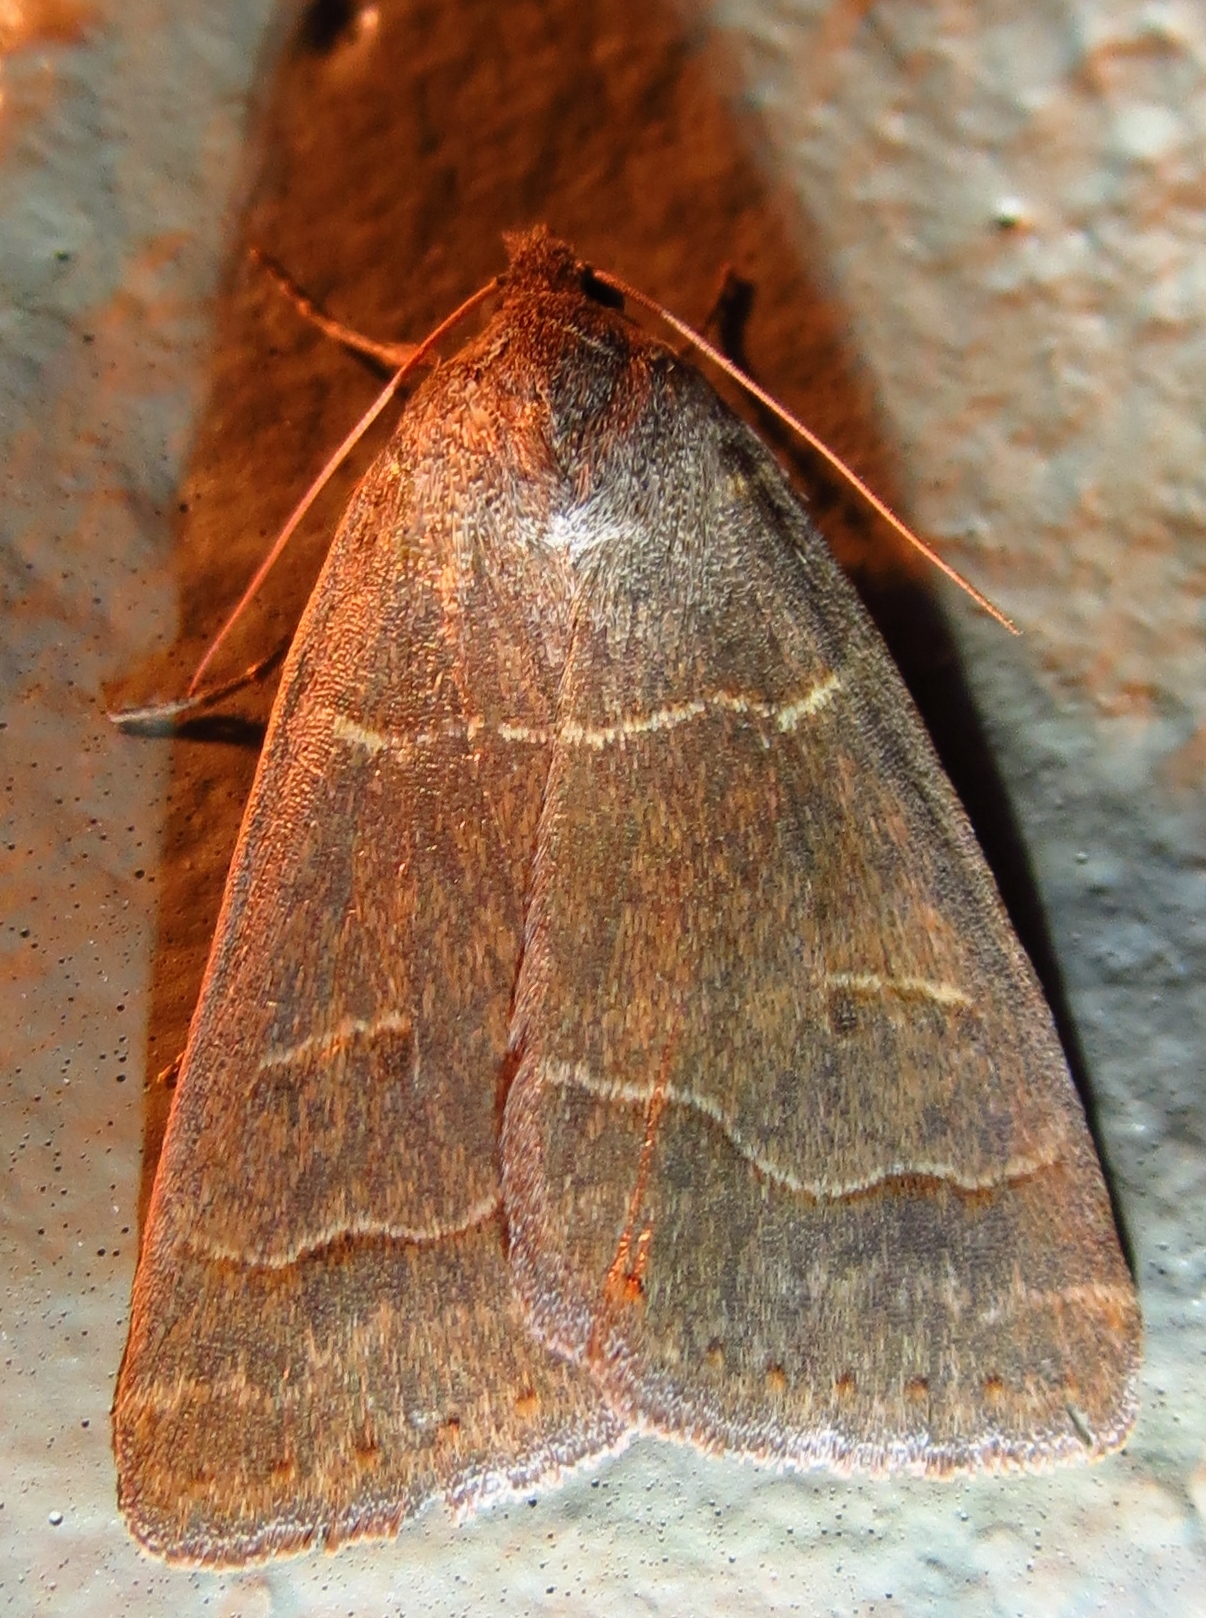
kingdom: Animalia
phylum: Arthropoda
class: Insecta
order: Lepidoptera
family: Erebidae
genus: Phoberia
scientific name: Phoberia atomaris
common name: Common oak moth
